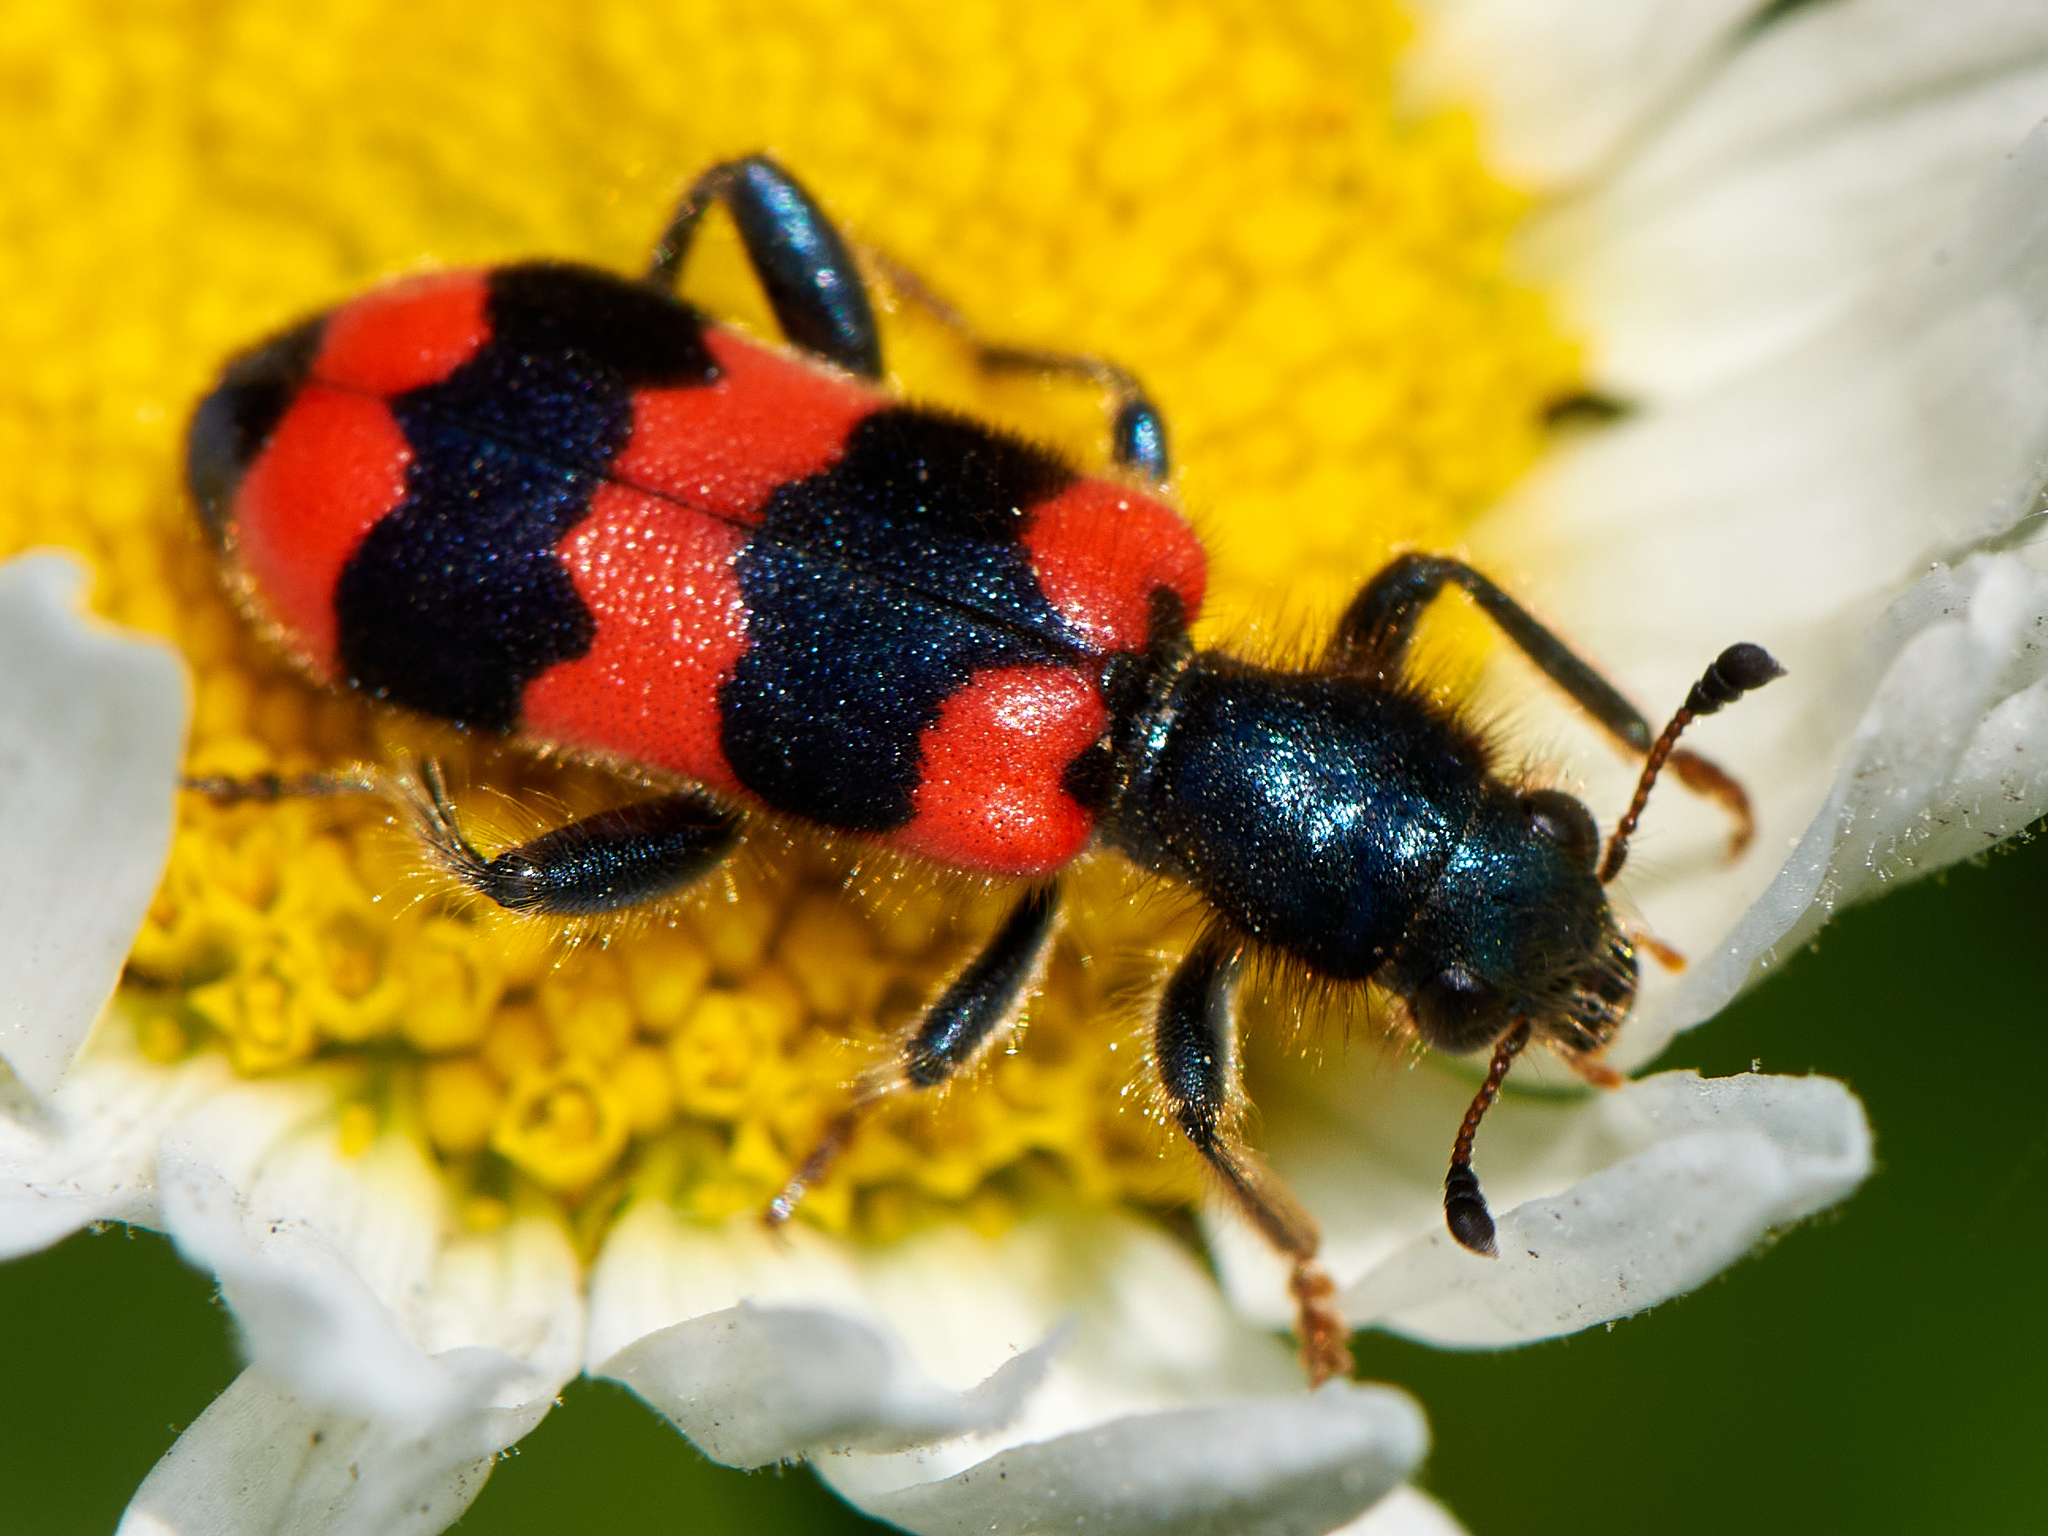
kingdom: Animalia
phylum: Arthropoda
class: Insecta
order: Coleoptera
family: Cleridae
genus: Trichodes
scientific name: Trichodes apiarius
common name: Bee-eating beetle
